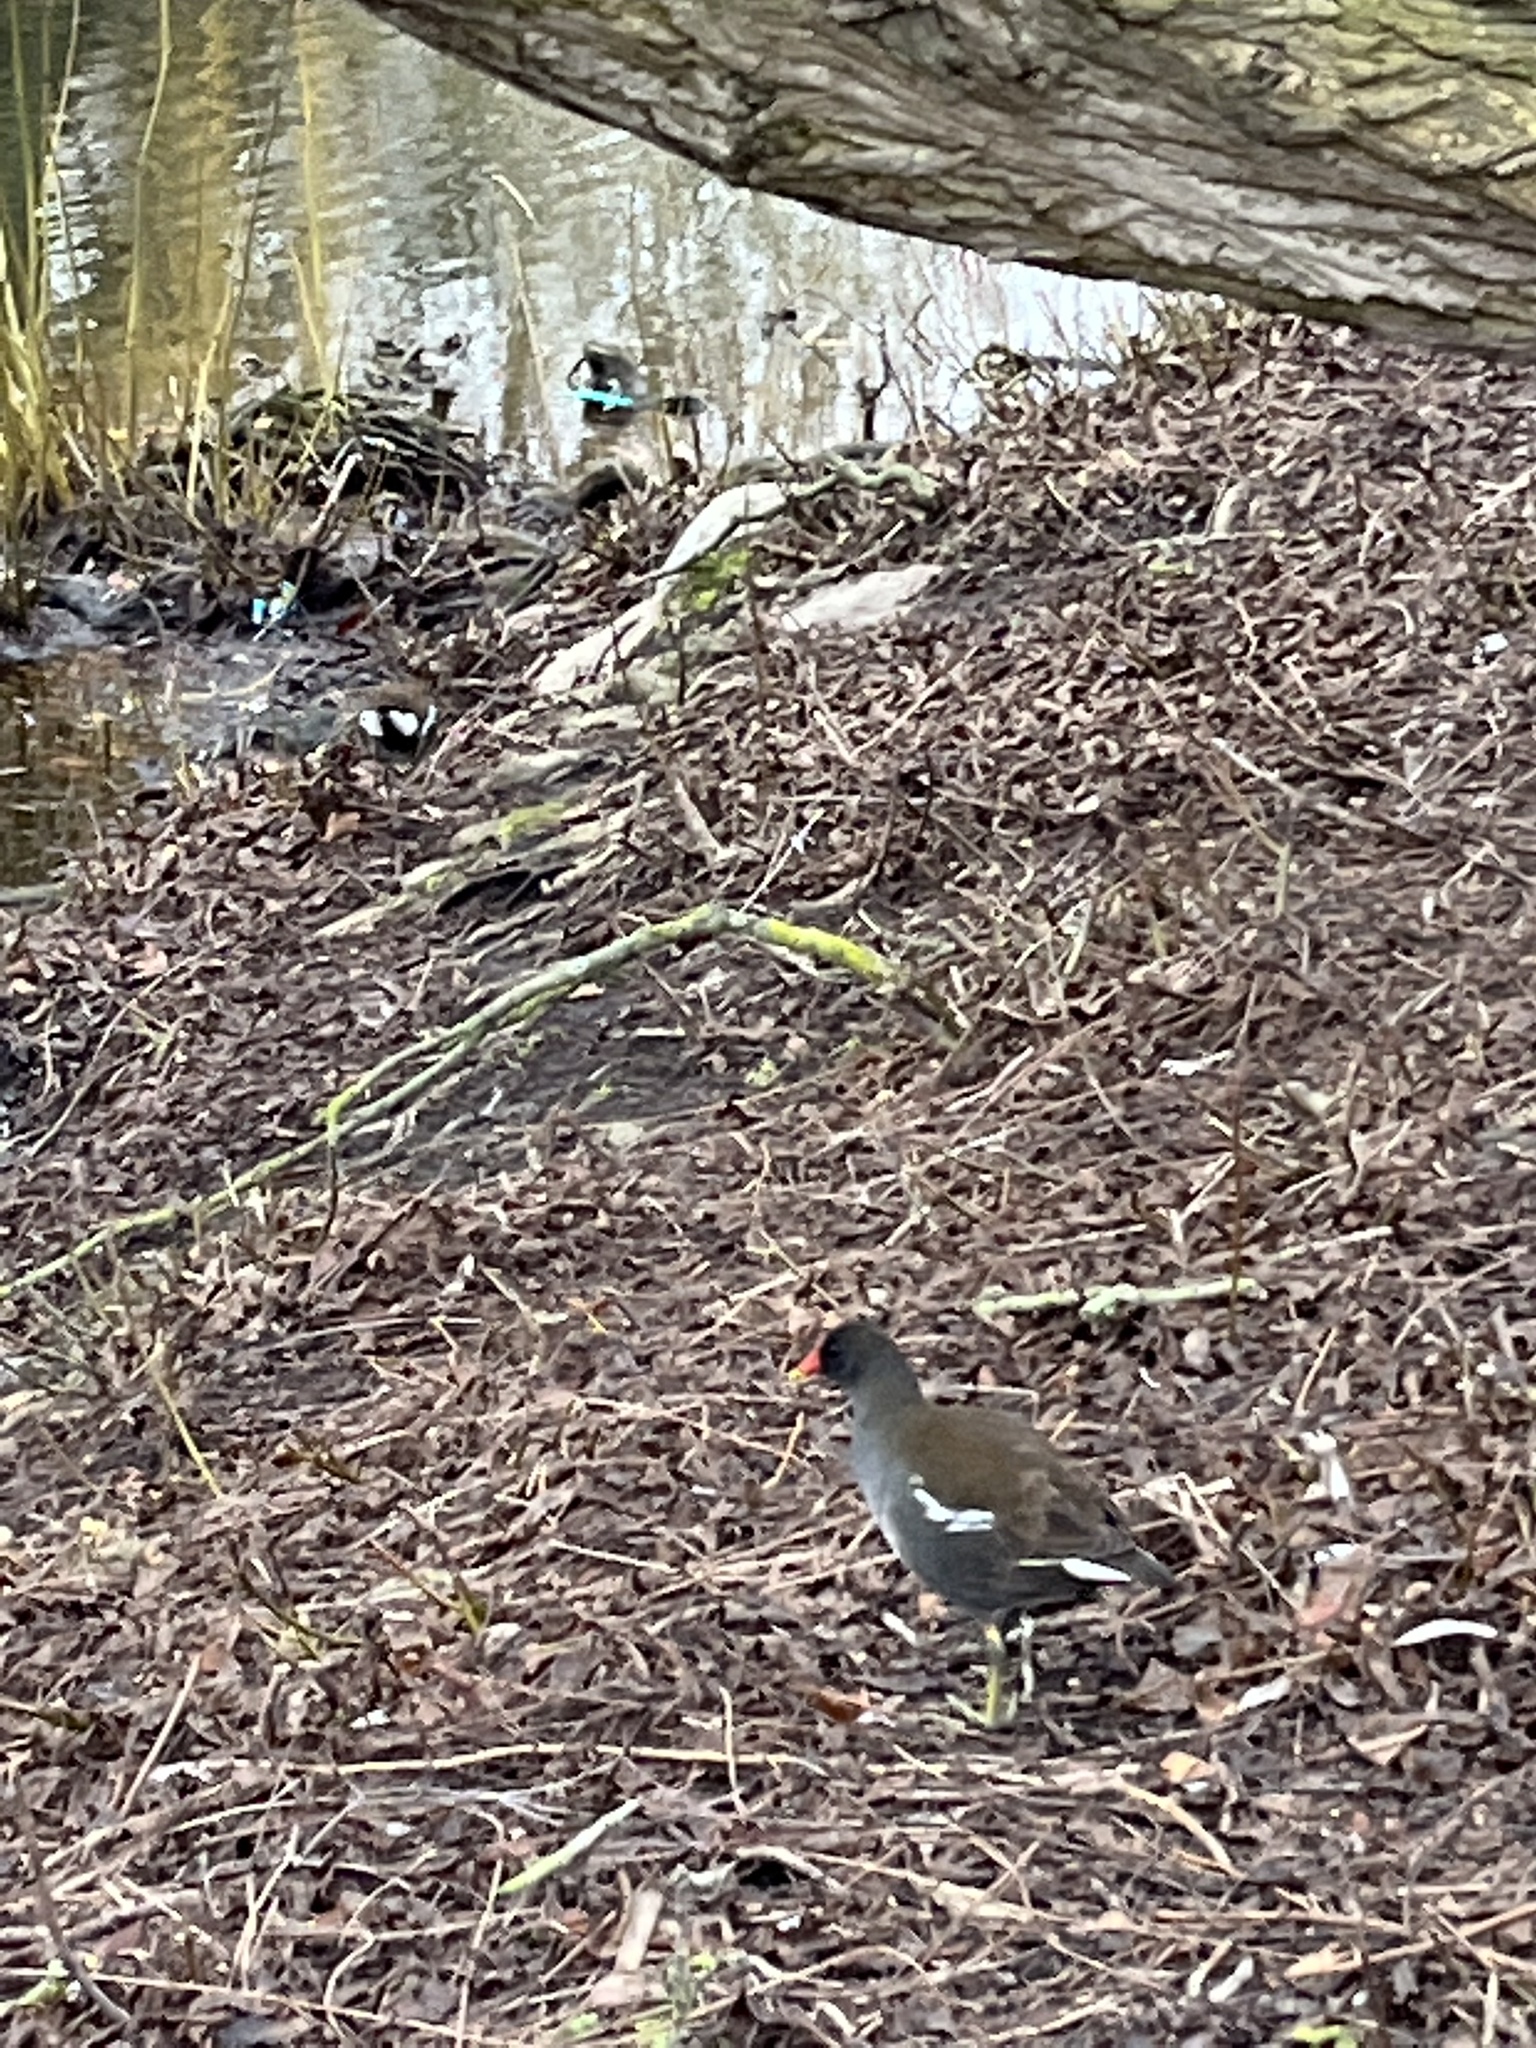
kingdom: Animalia
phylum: Chordata
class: Aves
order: Gruiformes
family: Rallidae
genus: Gallinula
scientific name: Gallinula chloropus
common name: Common moorhen
